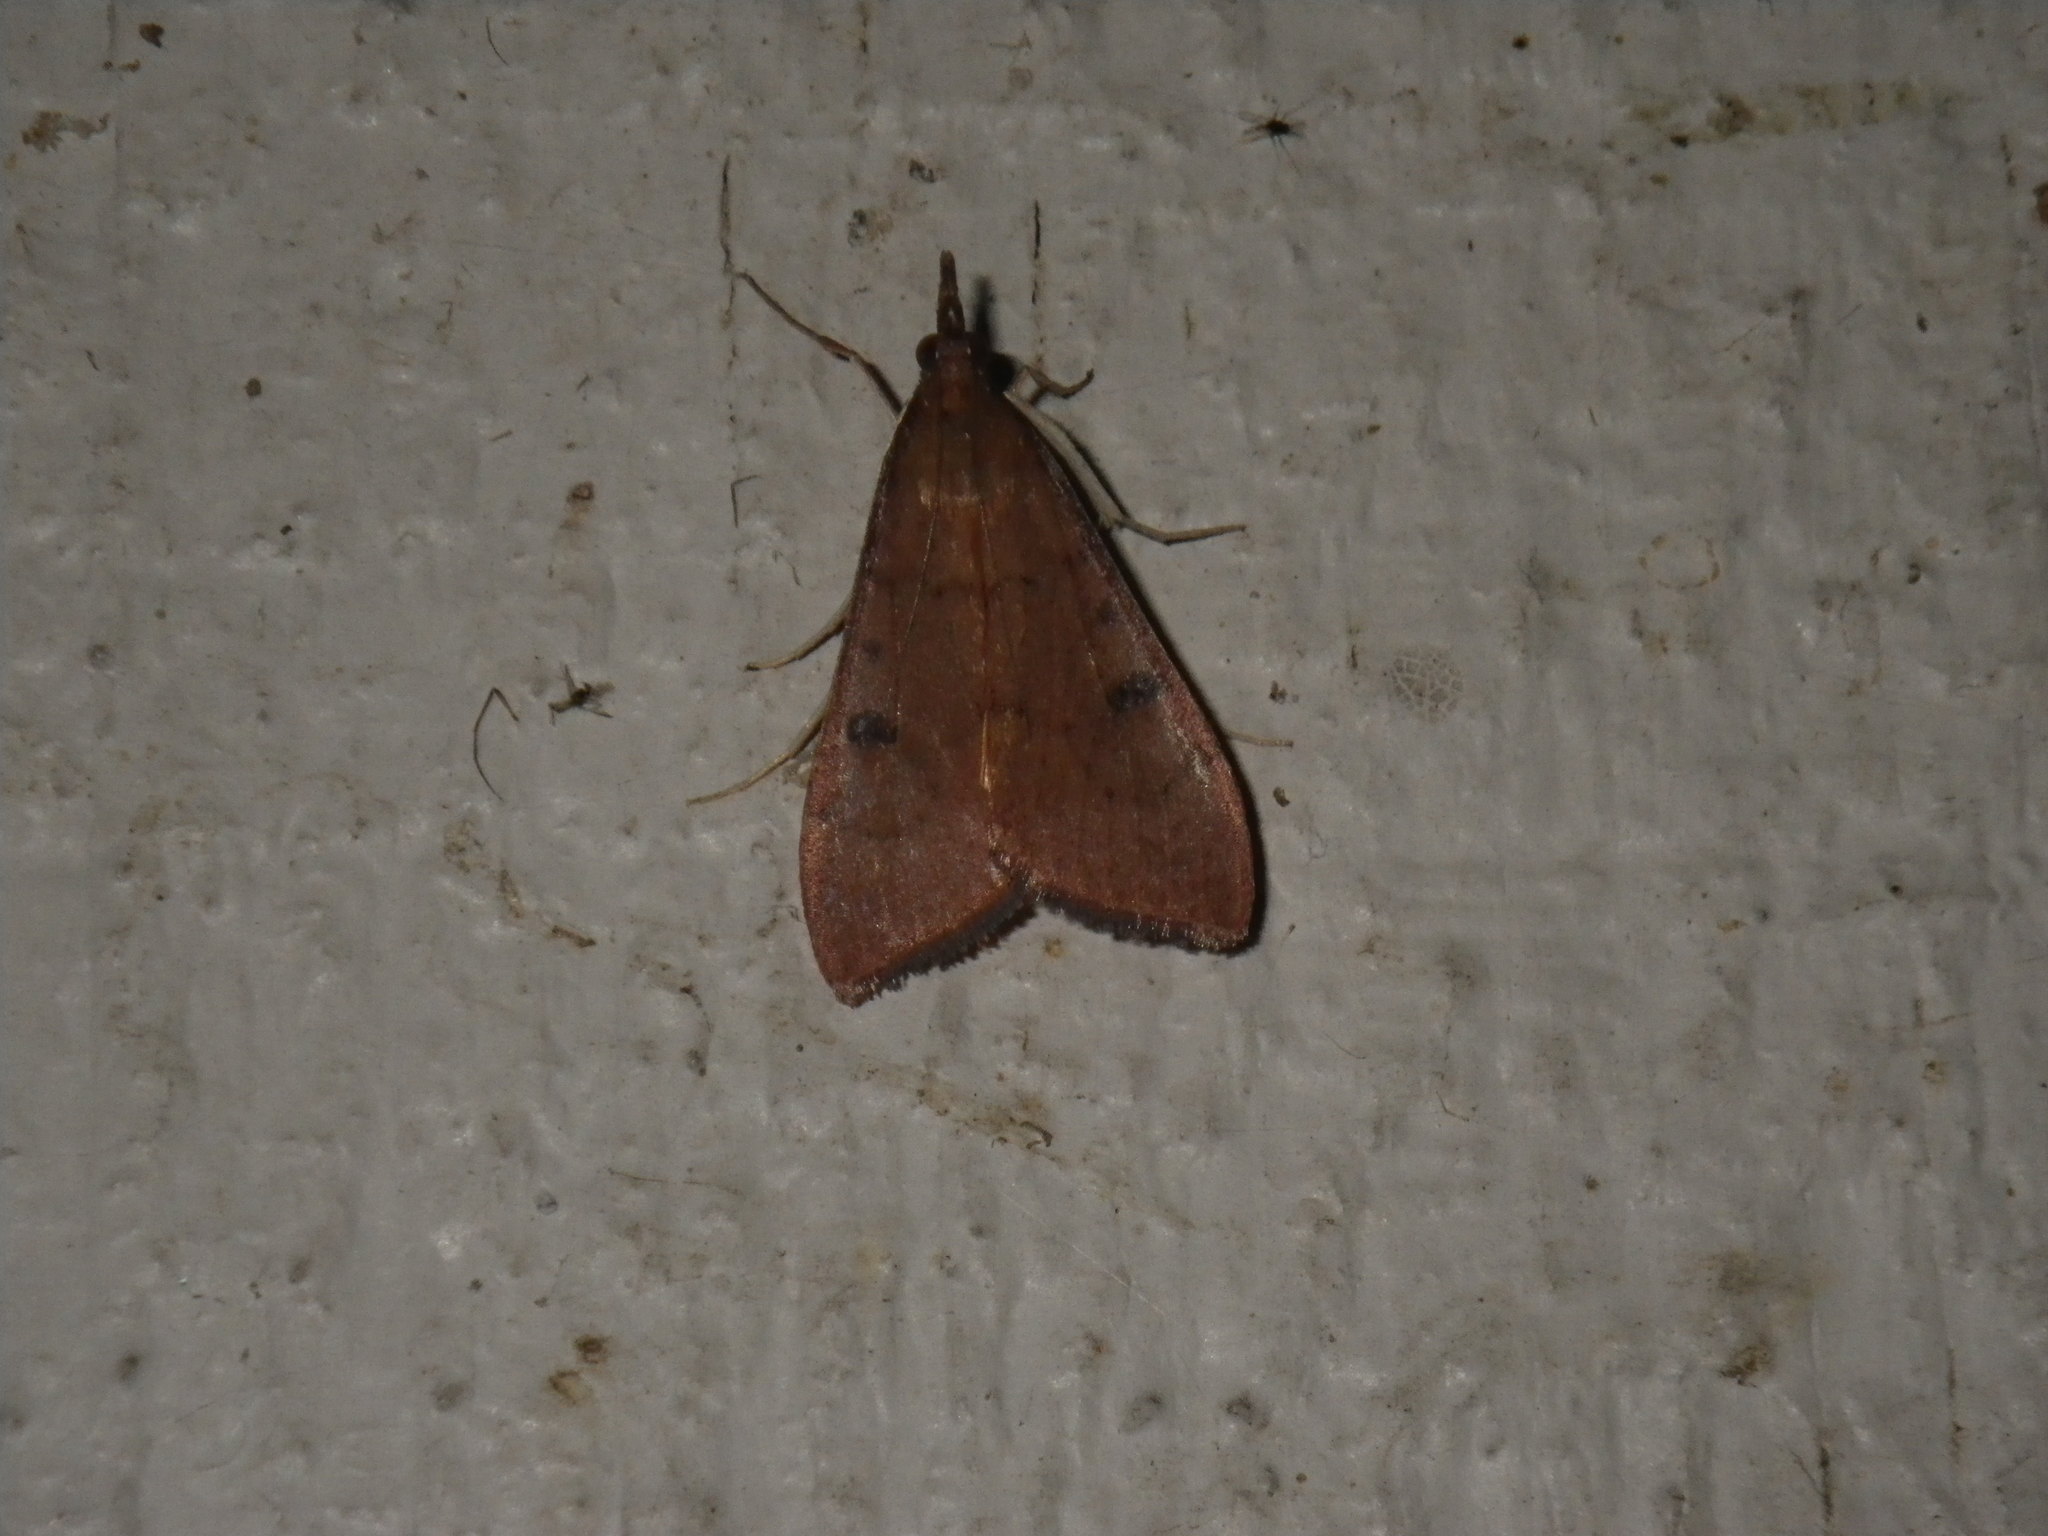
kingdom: Animalia
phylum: Arthropoda
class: Insecta
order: Lepidoptera
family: Crambidae
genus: Uresiphita
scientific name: Uresiphita reversalis
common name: Genista broom moth
